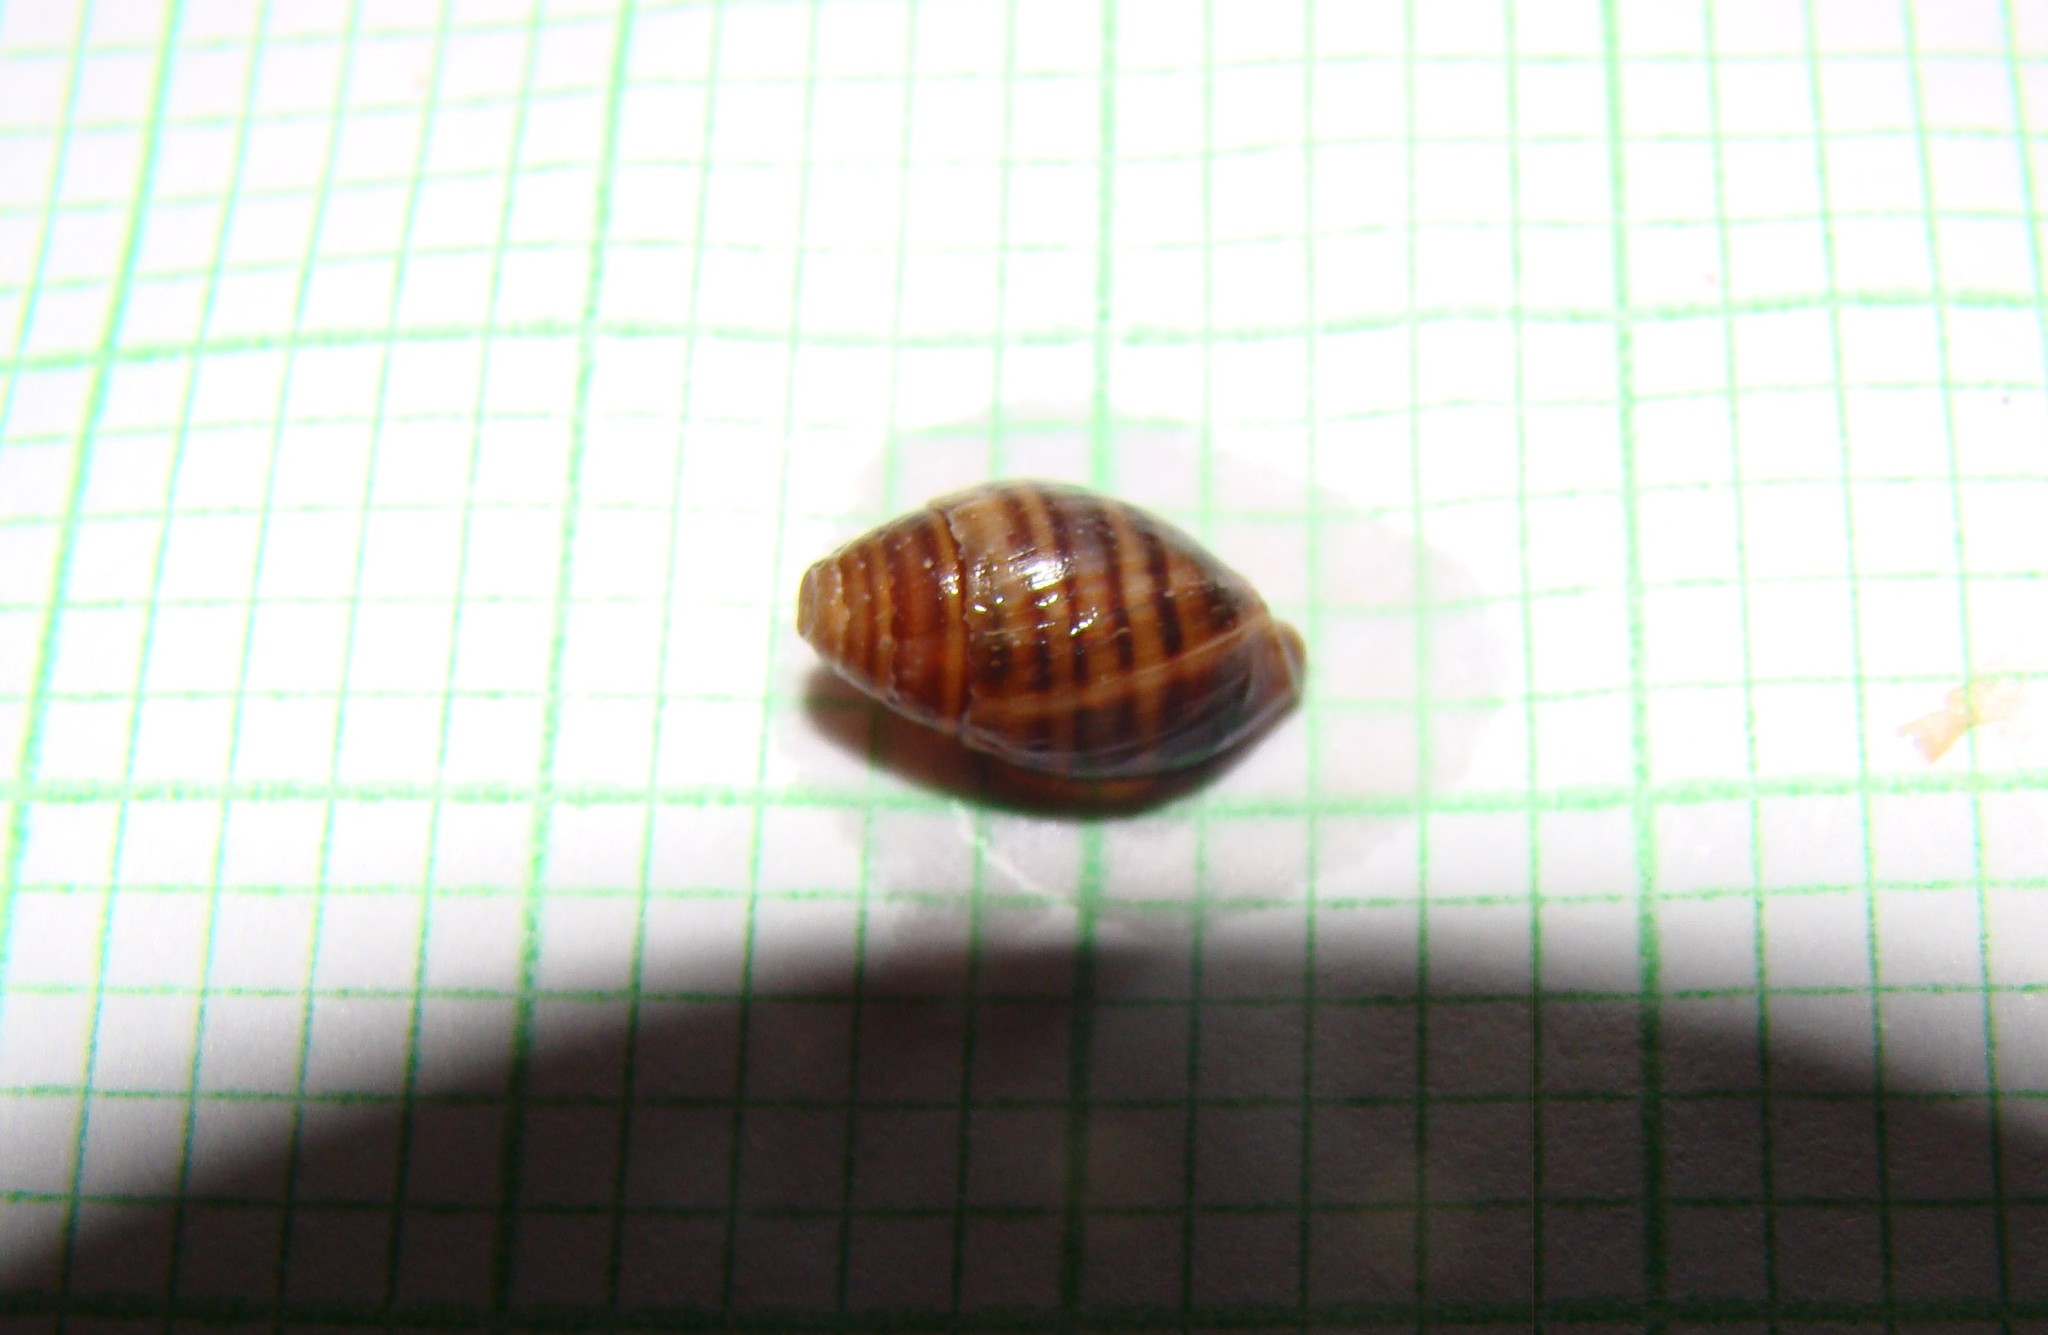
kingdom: Animalia
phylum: Mollusca
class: Gastropoda
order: Ellobiida
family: Ellobiidae
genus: Pleuroloba
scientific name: Pleuroloba costellaris
